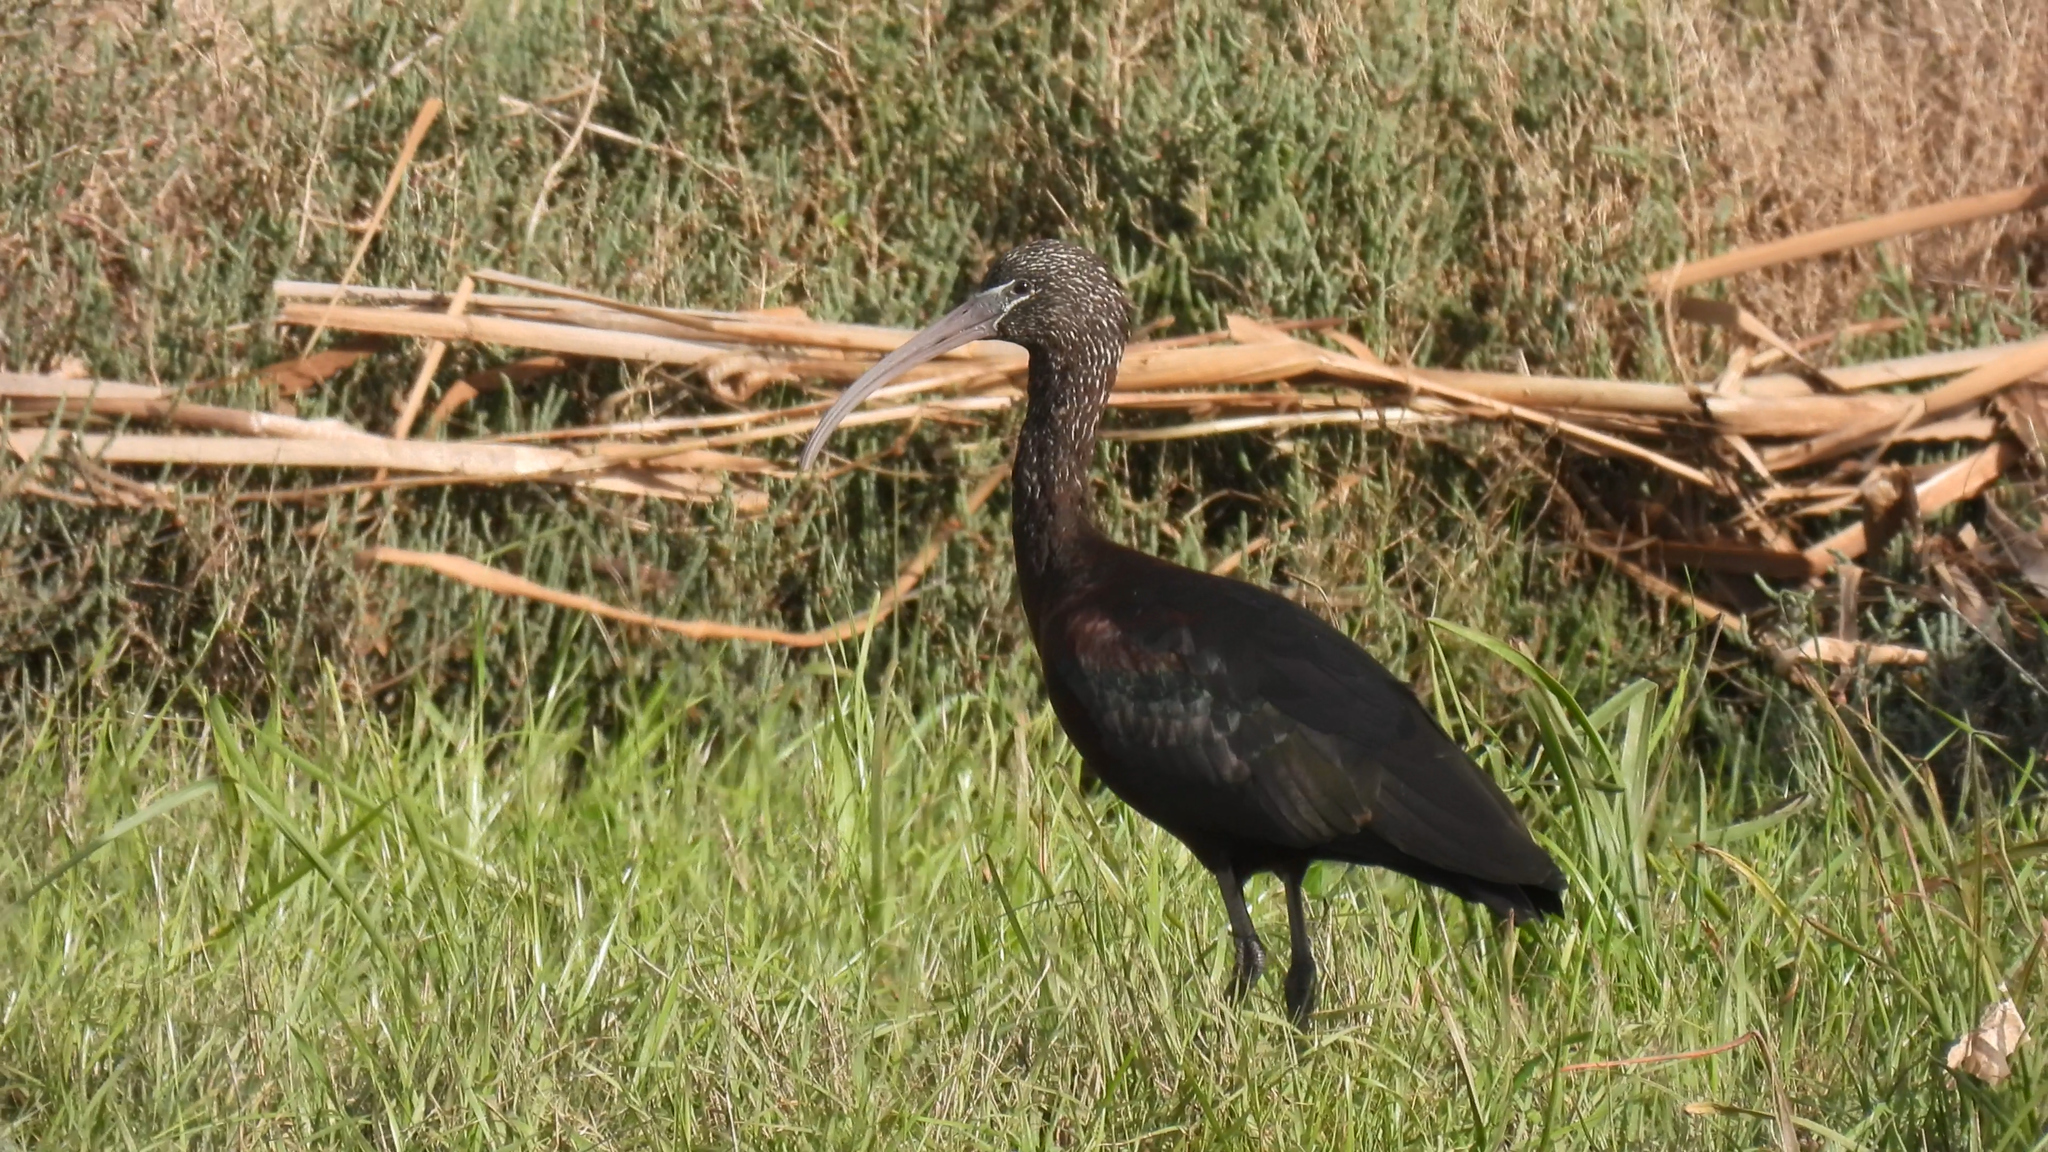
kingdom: Animalia
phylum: Chordata
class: Aves
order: Pelecaniformes
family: Threskiornithidae
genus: Plegadis
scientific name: Plegadis falcinellus
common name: Glossy ibis
